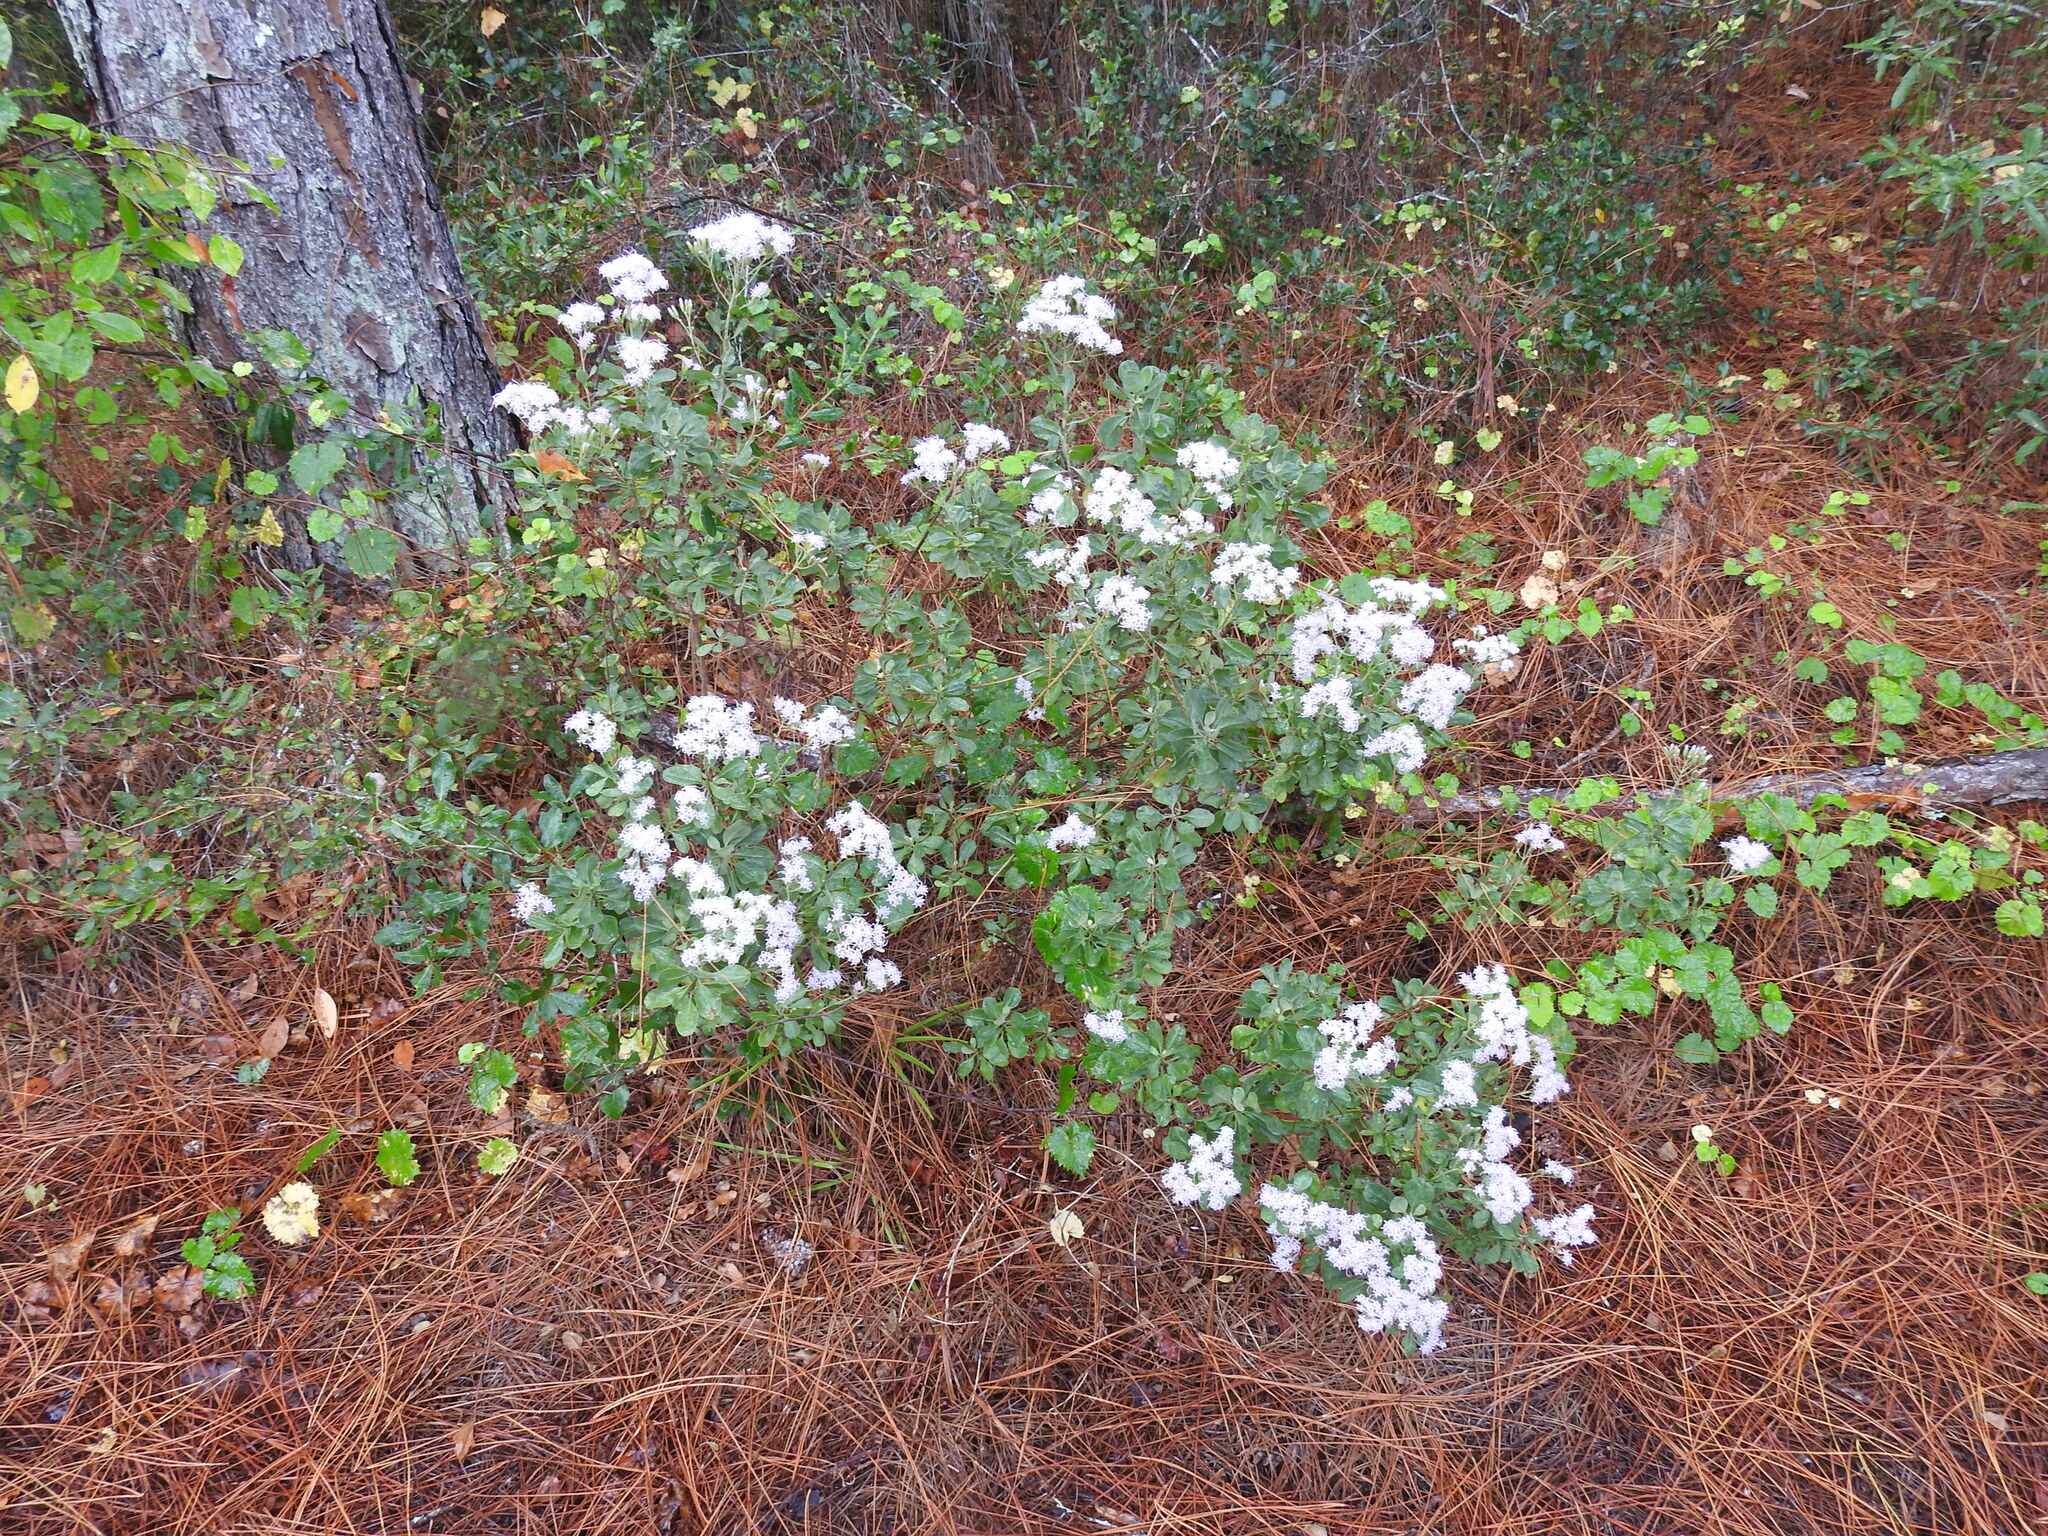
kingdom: Plantae
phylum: Tracheophyta
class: Magnoliopsida
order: Asterales
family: Asteraceae
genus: Garberia
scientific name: Garberia heterophylla
